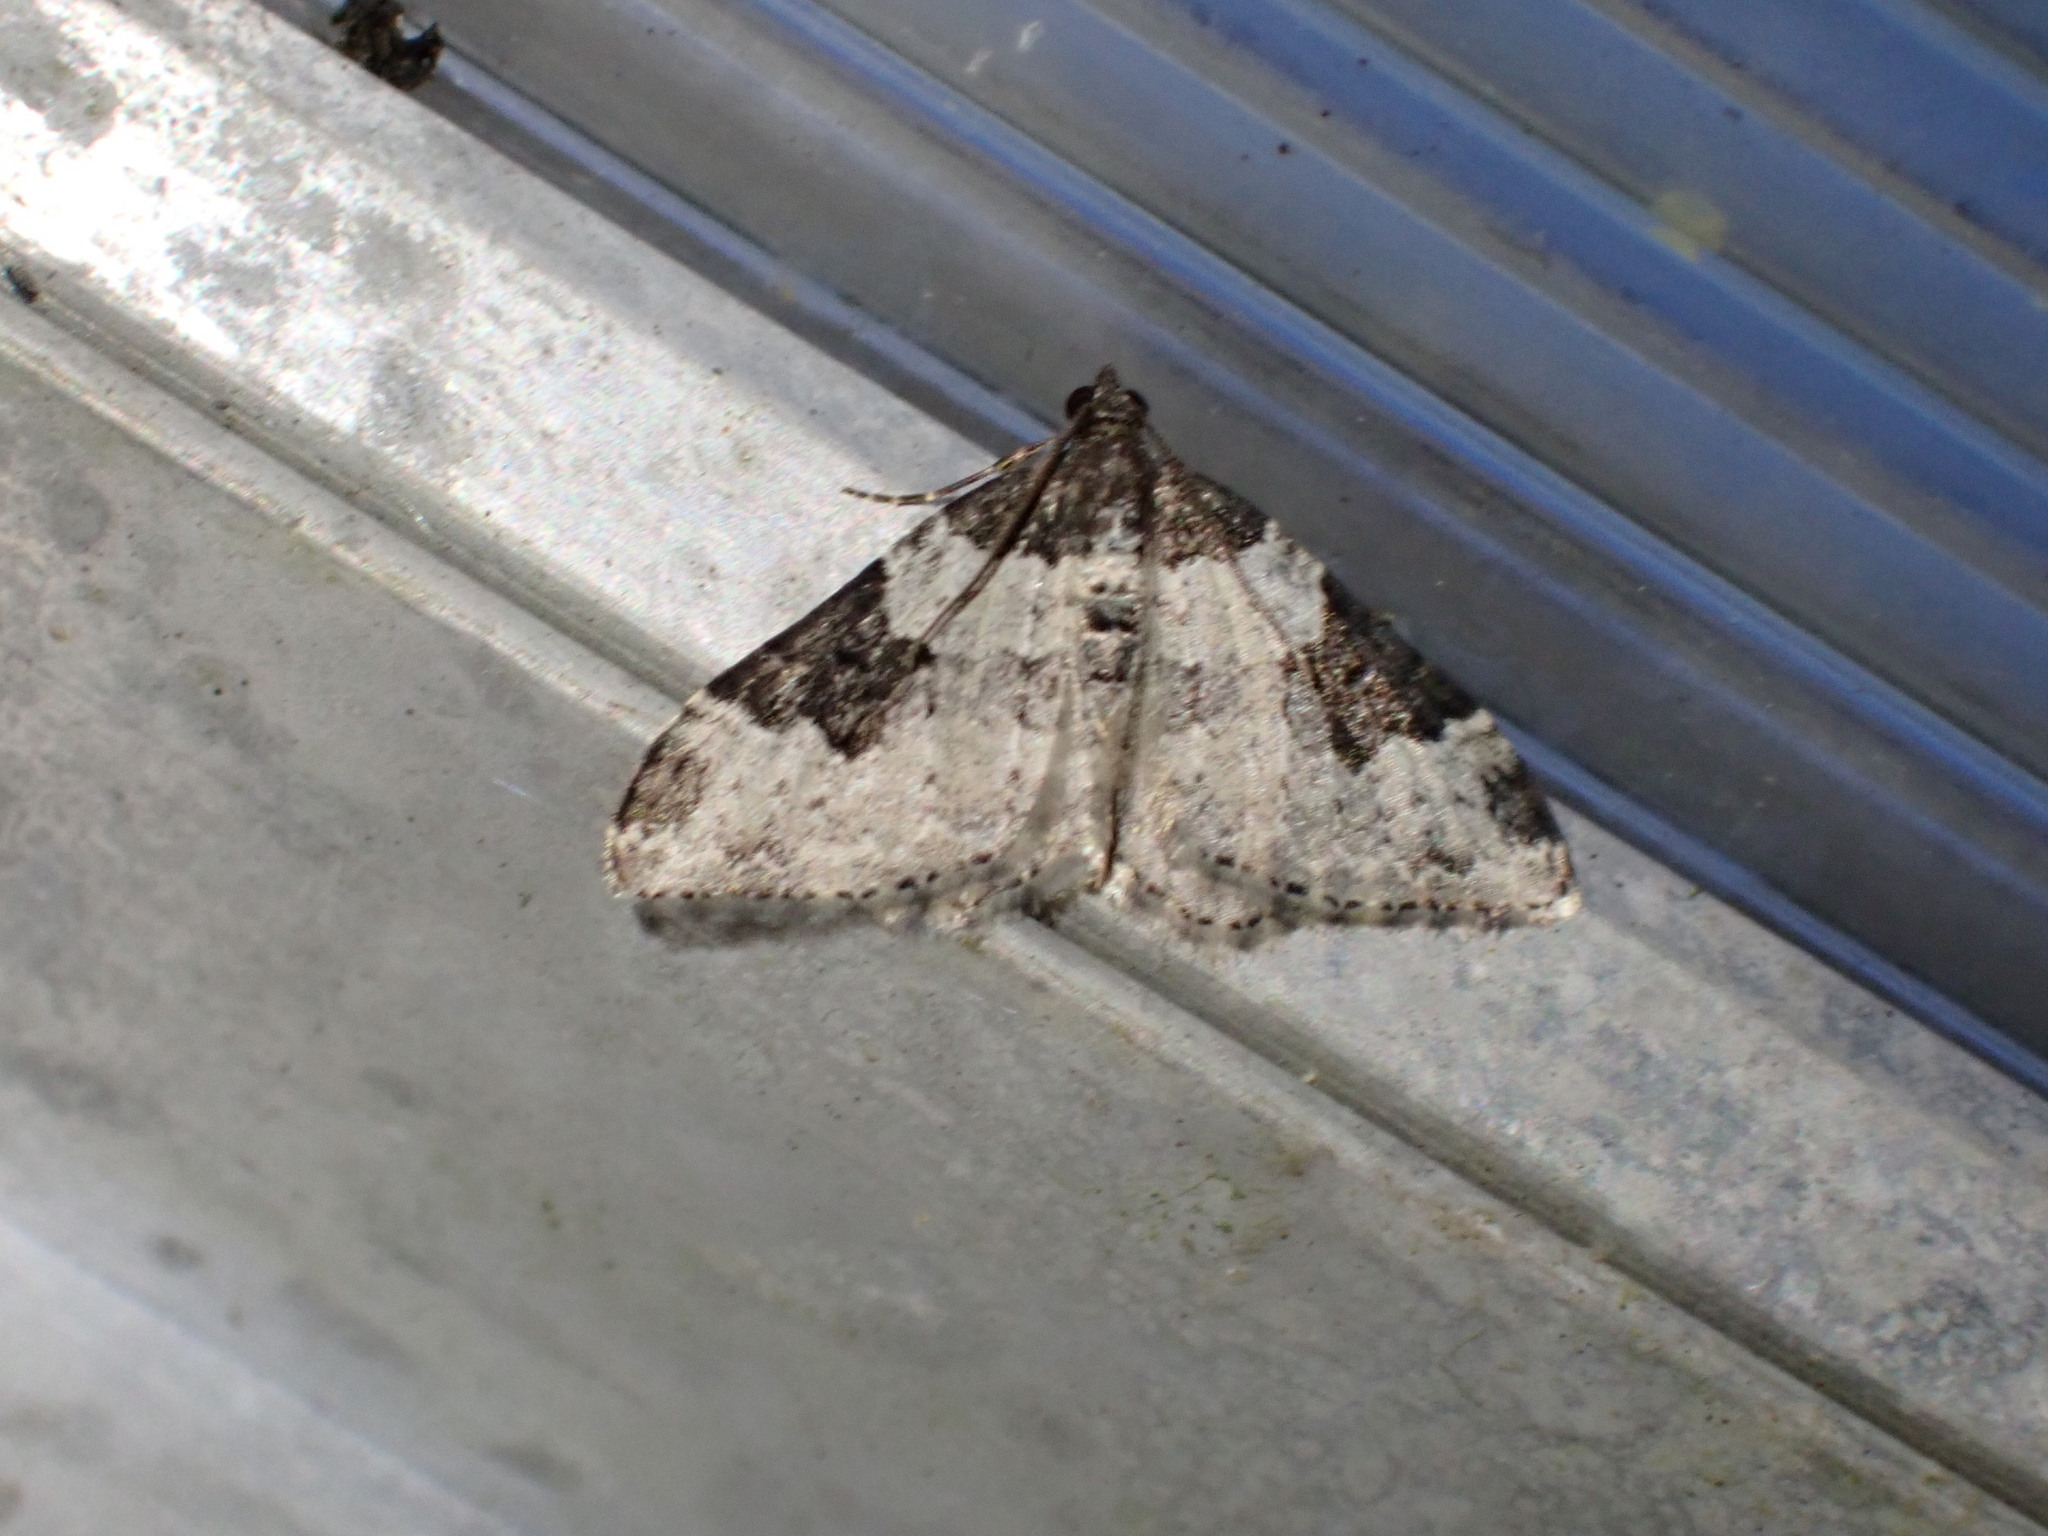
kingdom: Animalia
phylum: Arthropoda
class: Insecta
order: Lepidoptera
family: Geometridae
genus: Xanthorhoe
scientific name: Xanthorhoe fluctuata
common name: Garden carpet
